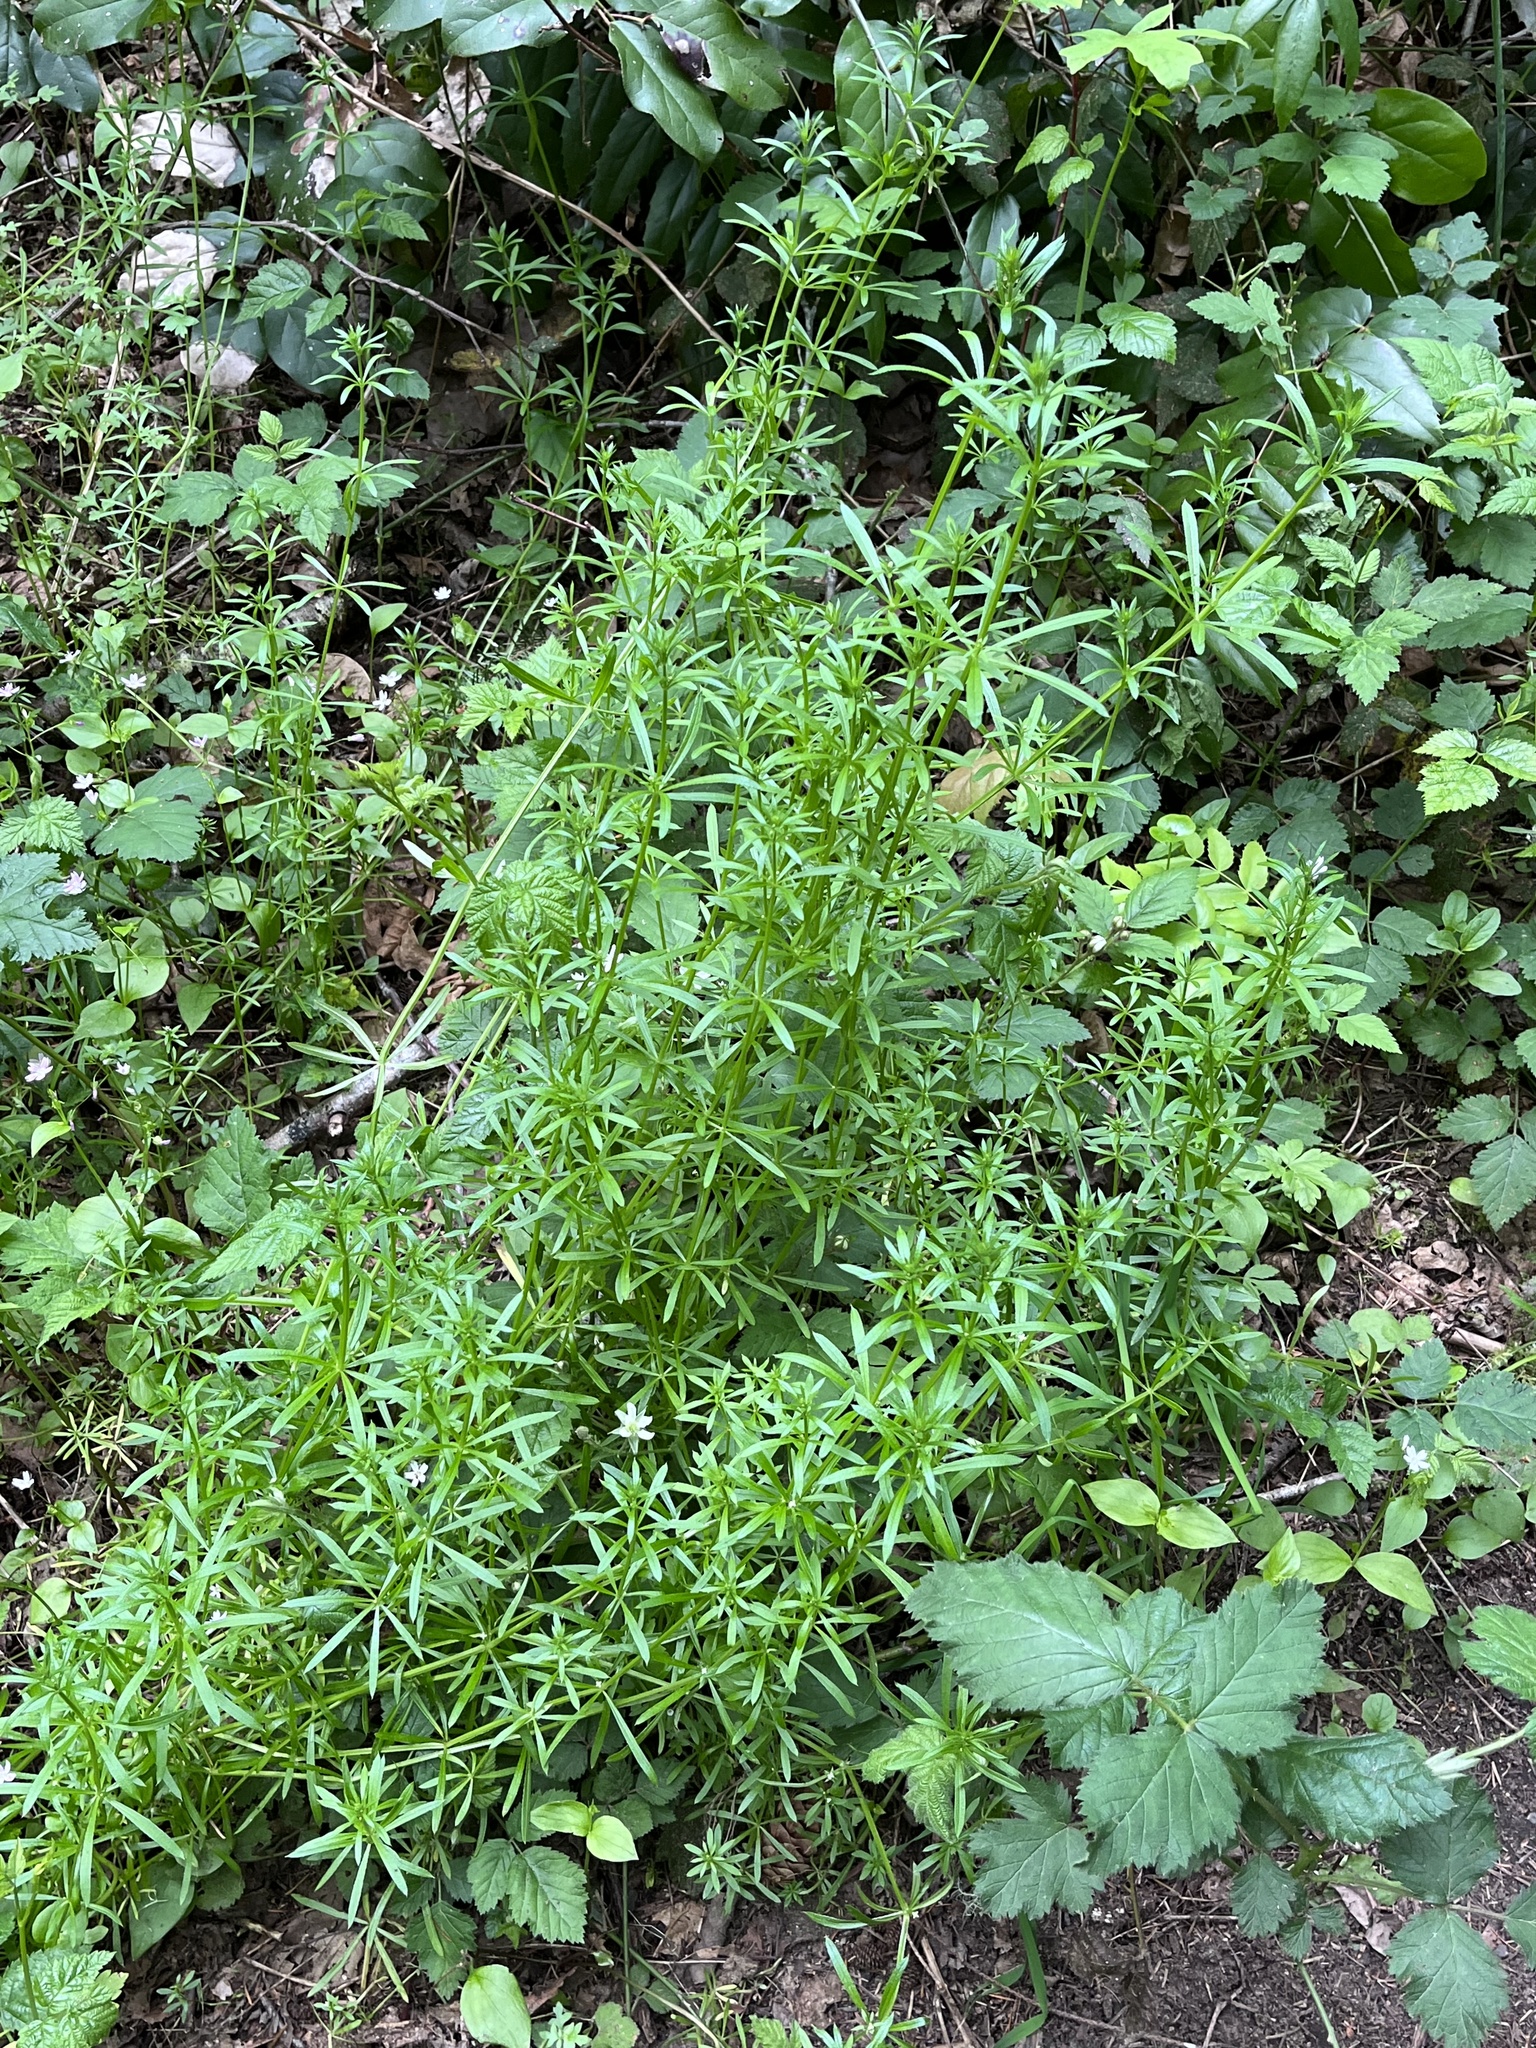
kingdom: Plantae
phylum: Tracheophyta
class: Magnoliopsida
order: Gentianales
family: Rubiaceae
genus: Galium
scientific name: Galium aparine
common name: Cleavers
